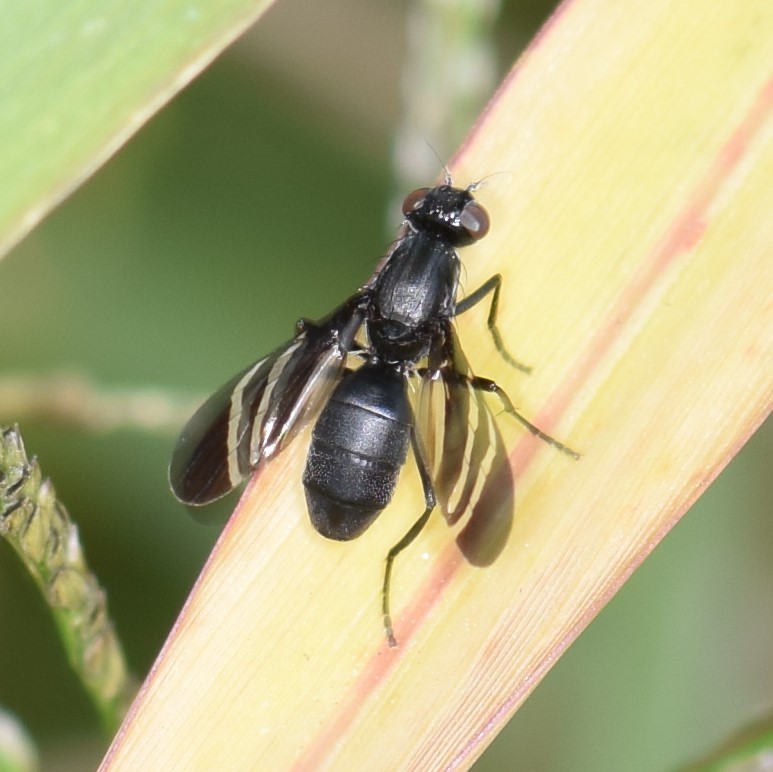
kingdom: Animalia
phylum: Arthropoda
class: Insecta
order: Diptera
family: Ulidiidae
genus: Tritoxa
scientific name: Tritoxa flexa
